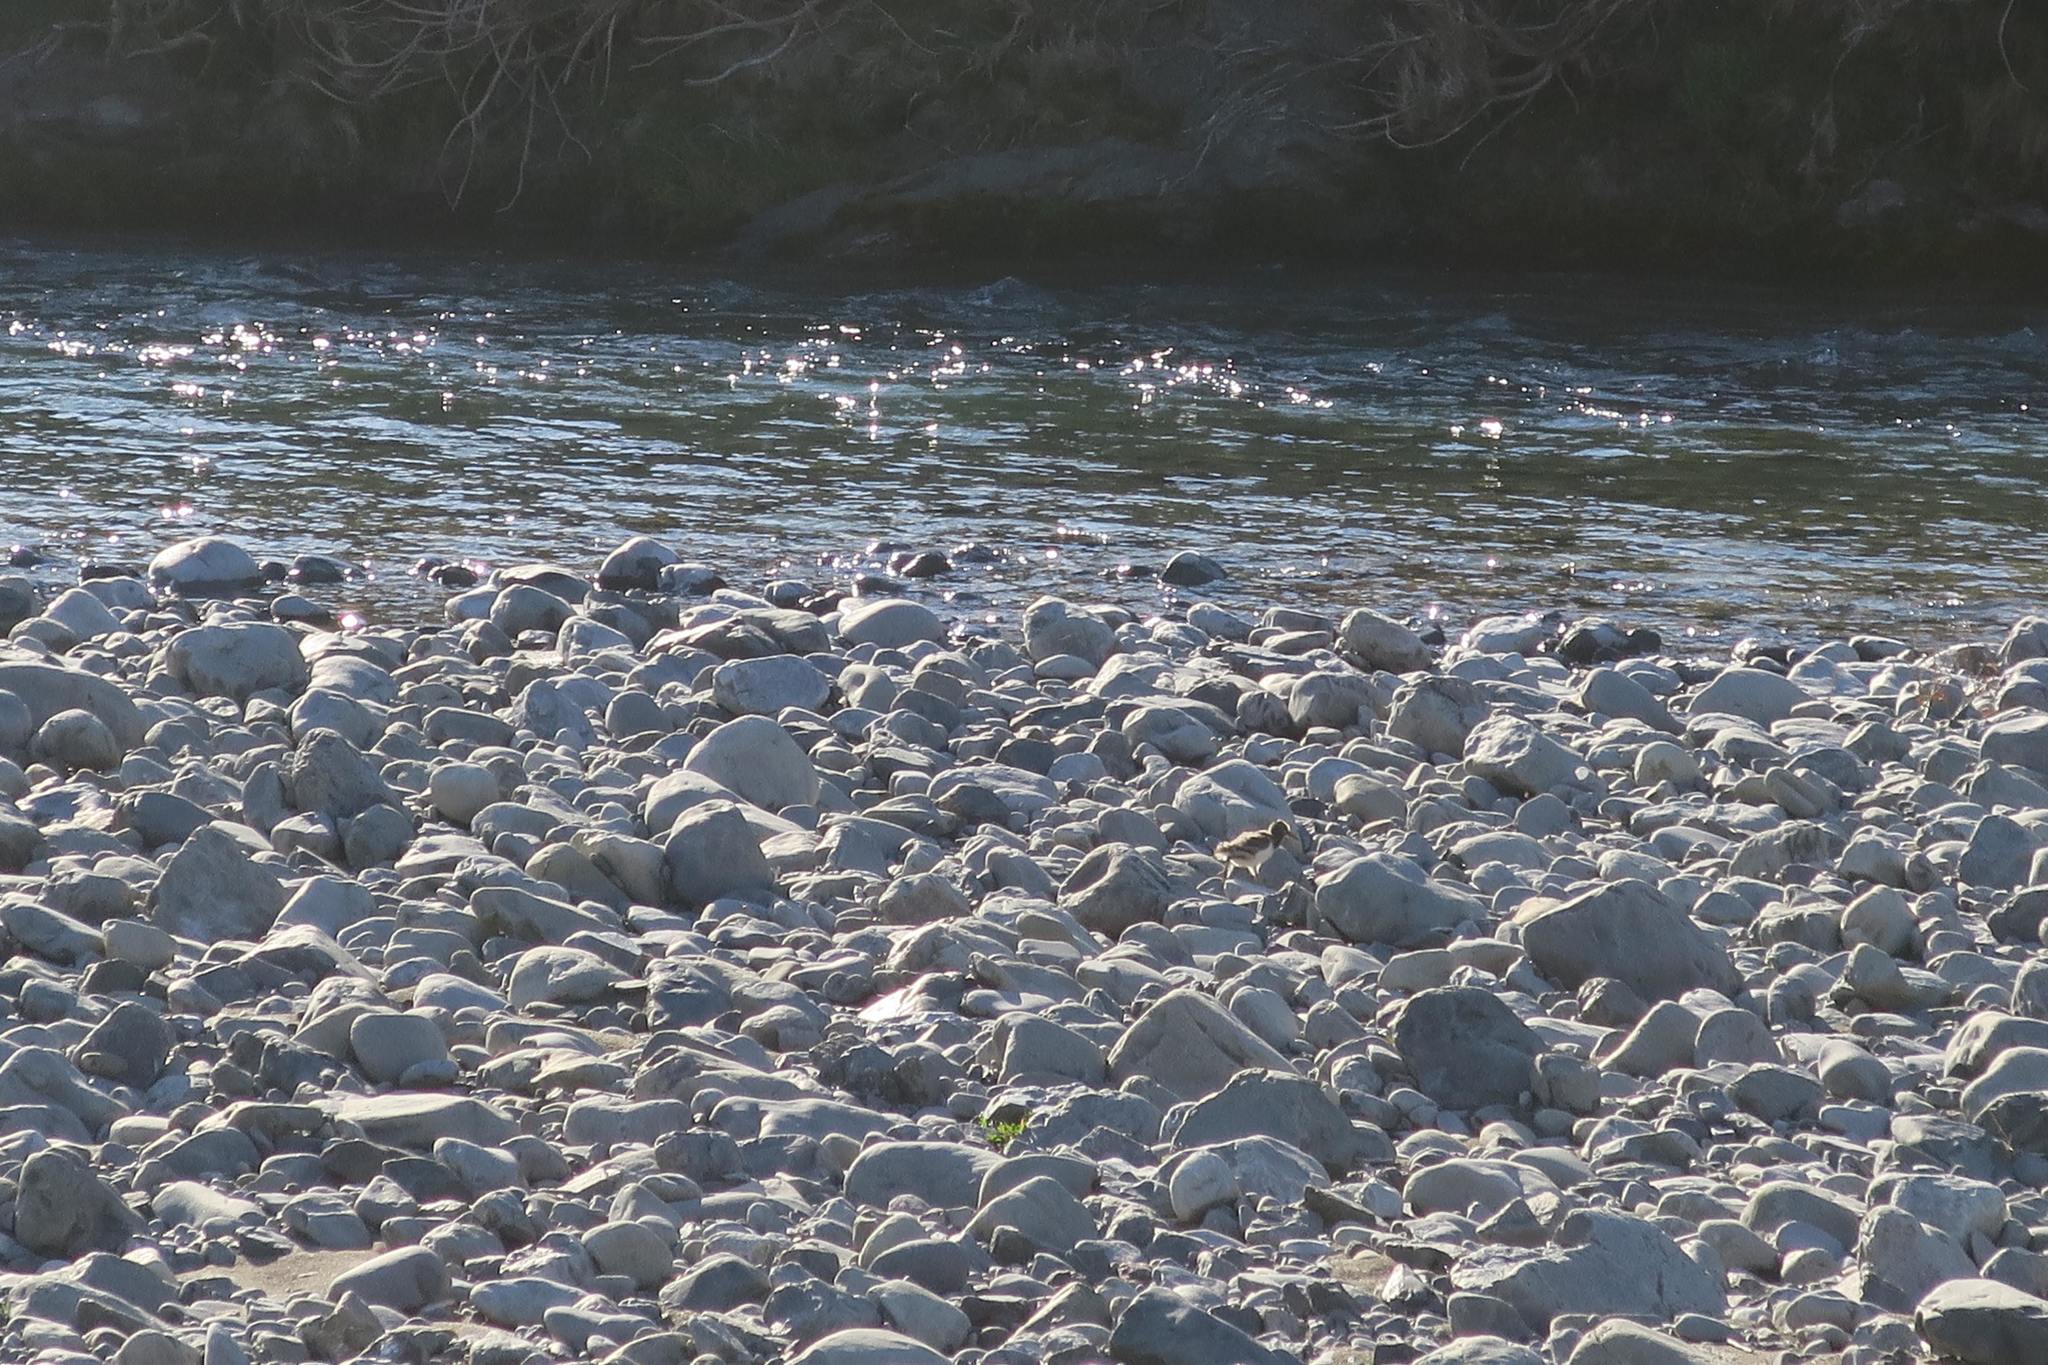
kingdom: Animalia
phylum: Chordata
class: Aves
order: Charadriiformes
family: Haematopodidae
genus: Haematopus
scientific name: Haematopus finschi
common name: South island oystercatcher
